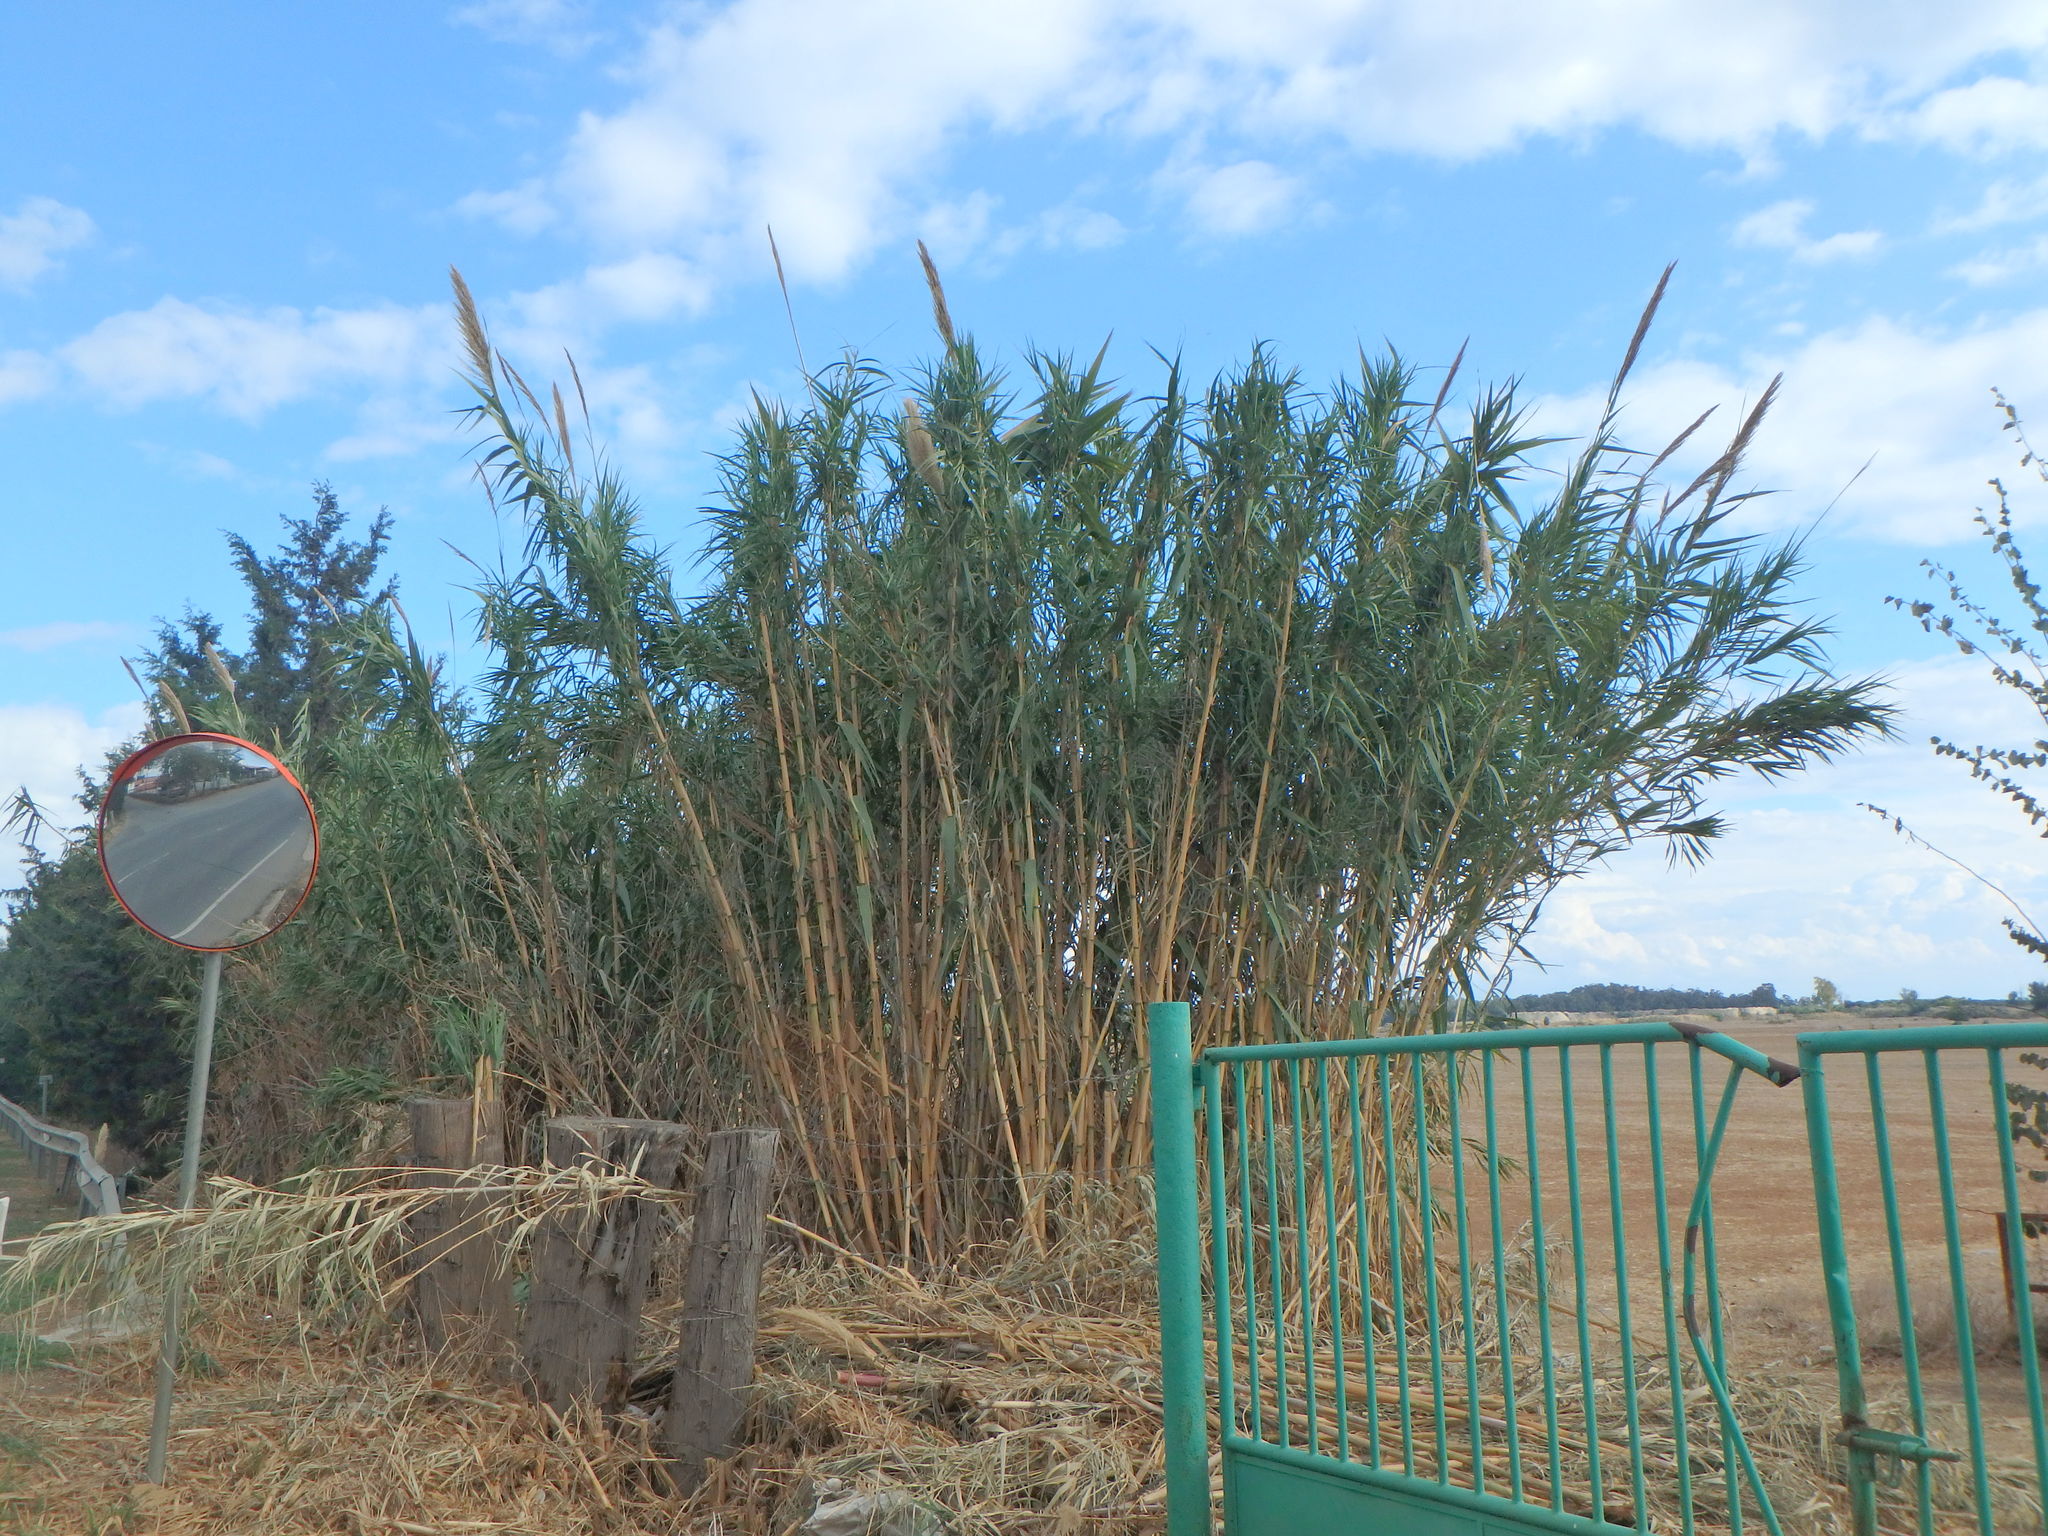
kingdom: Plantae
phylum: Tracheophyta
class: Liliopsida
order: Poales
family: Poaceae
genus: Arundo
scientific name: Arundo donax
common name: Giant reed
